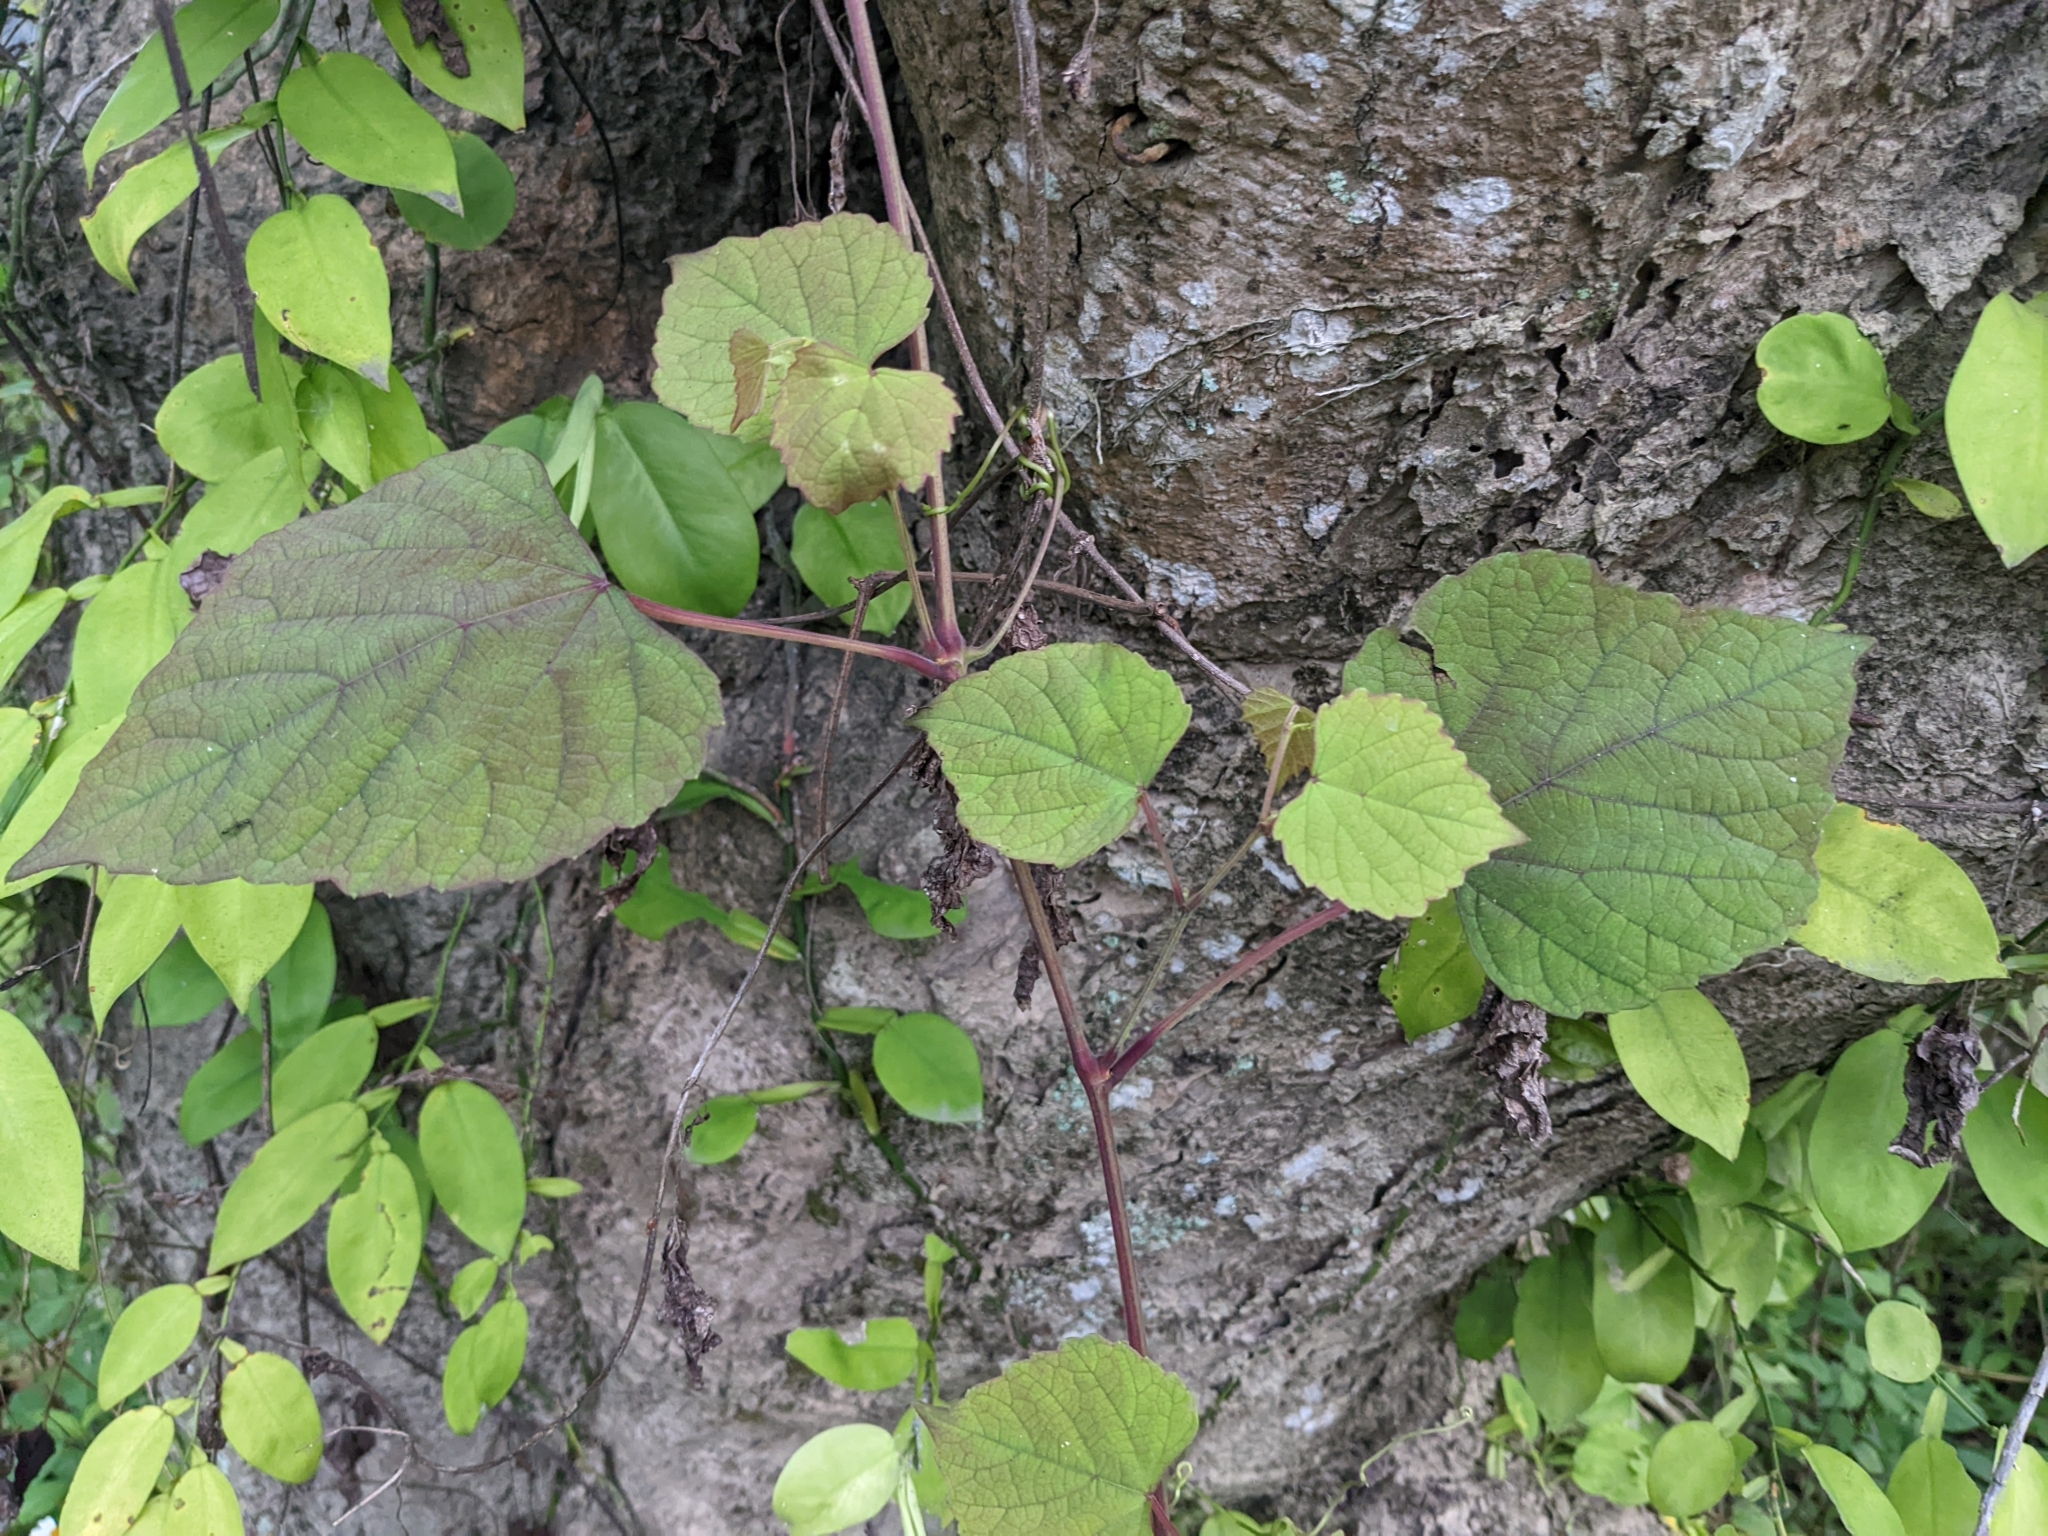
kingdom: Plantae
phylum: Tracheophyta
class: Magnoliopsida
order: Vitales
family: Vitaceae
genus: Ampelopsis
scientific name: Ampelopsis glandulosa
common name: Amur peppervine
